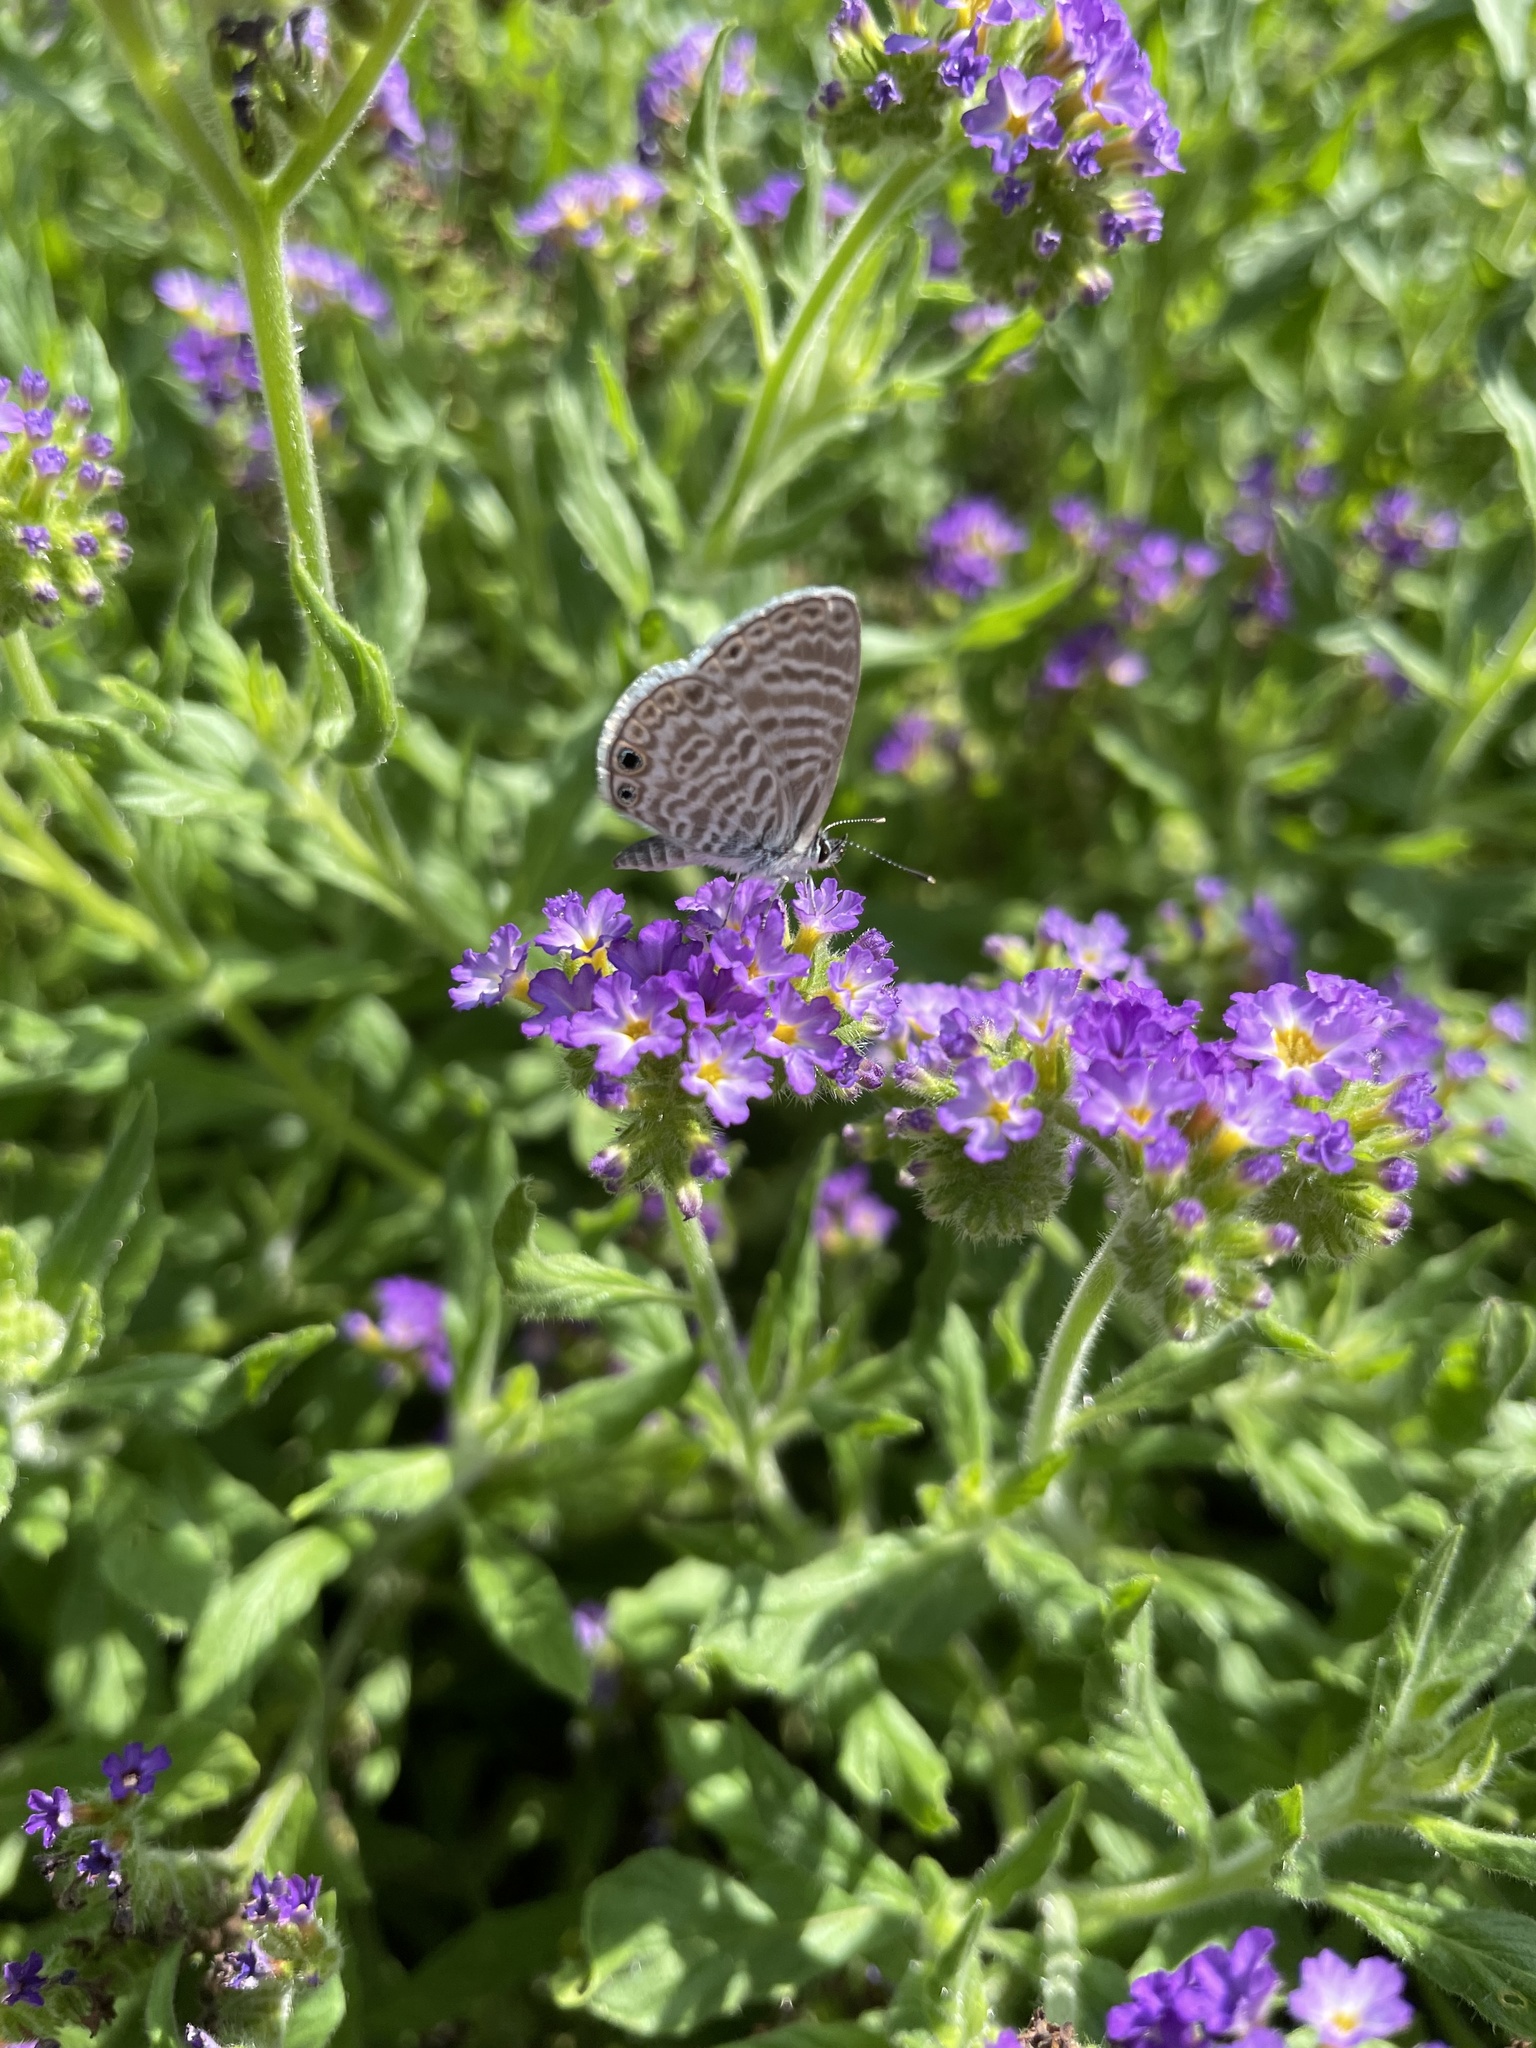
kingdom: Animalia
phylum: Arthropoda
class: Insecta
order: Lepidoptera
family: Lycaenidae
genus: Leptotes
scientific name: Leptotes marina
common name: Marine blue
